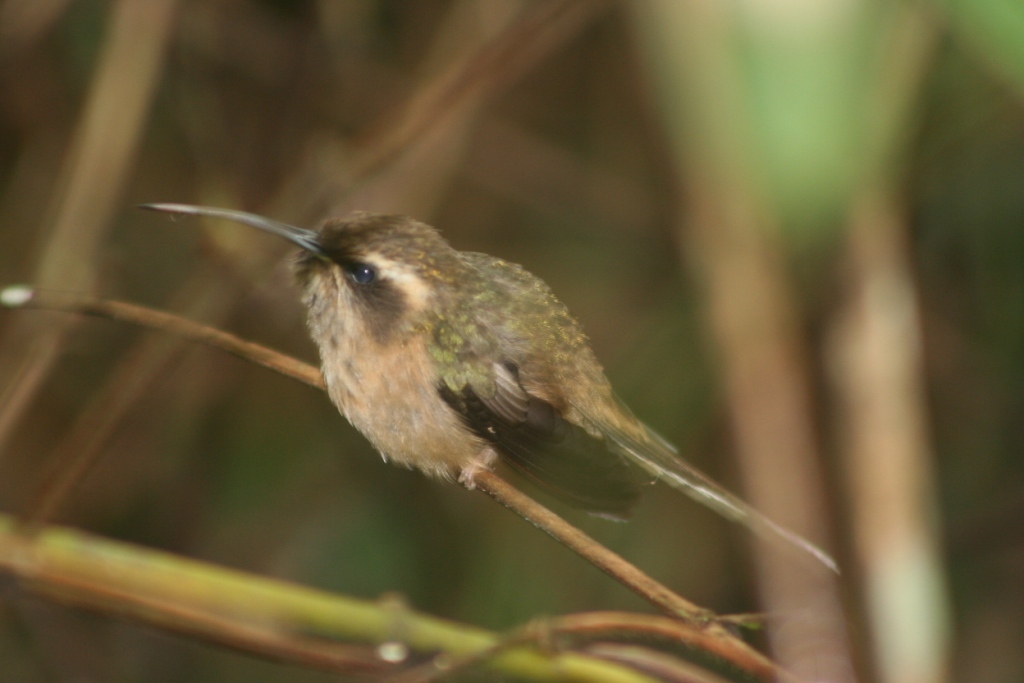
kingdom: Animalia
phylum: Chordata
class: Aves
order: Apodiformes
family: Trochilidae
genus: Phaethornis
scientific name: Phaethornis squalidus
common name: Dusky-throated hermit
